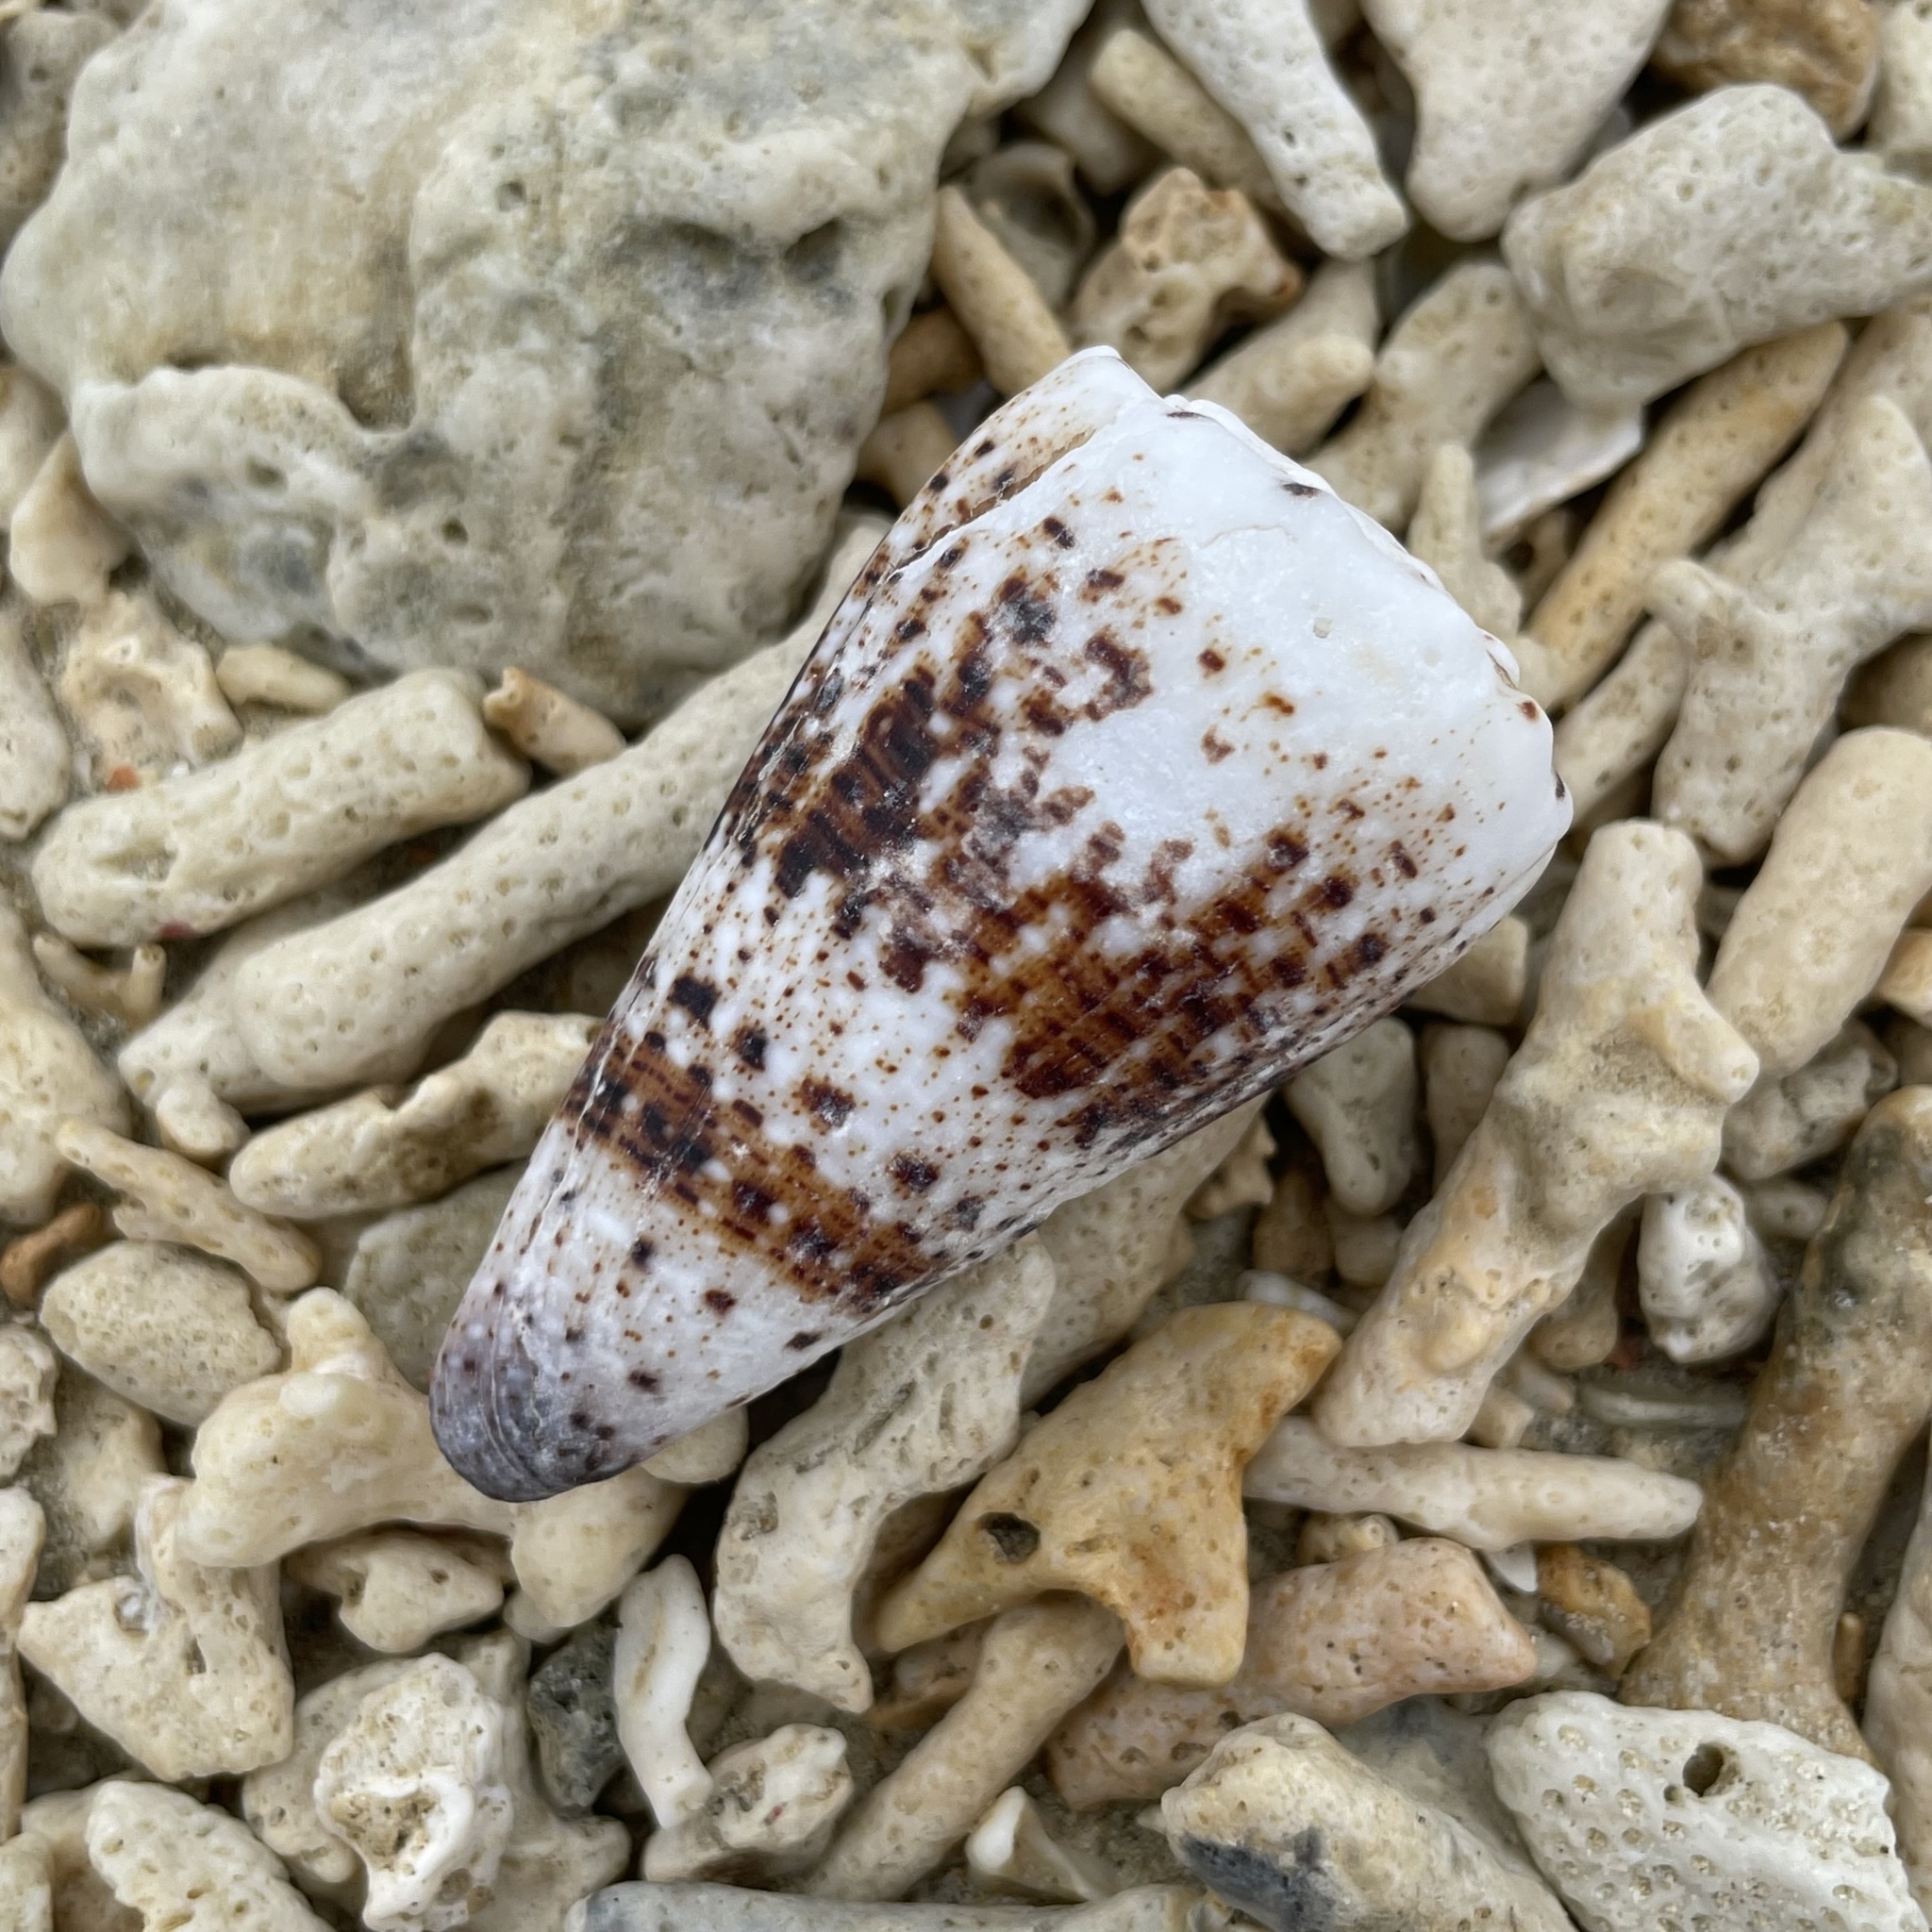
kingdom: Animalia
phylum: Mollusca
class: Gastropoda
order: Neogastropoda
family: Conidae
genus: Conus
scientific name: Conus imperialis
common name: Imperial cone
